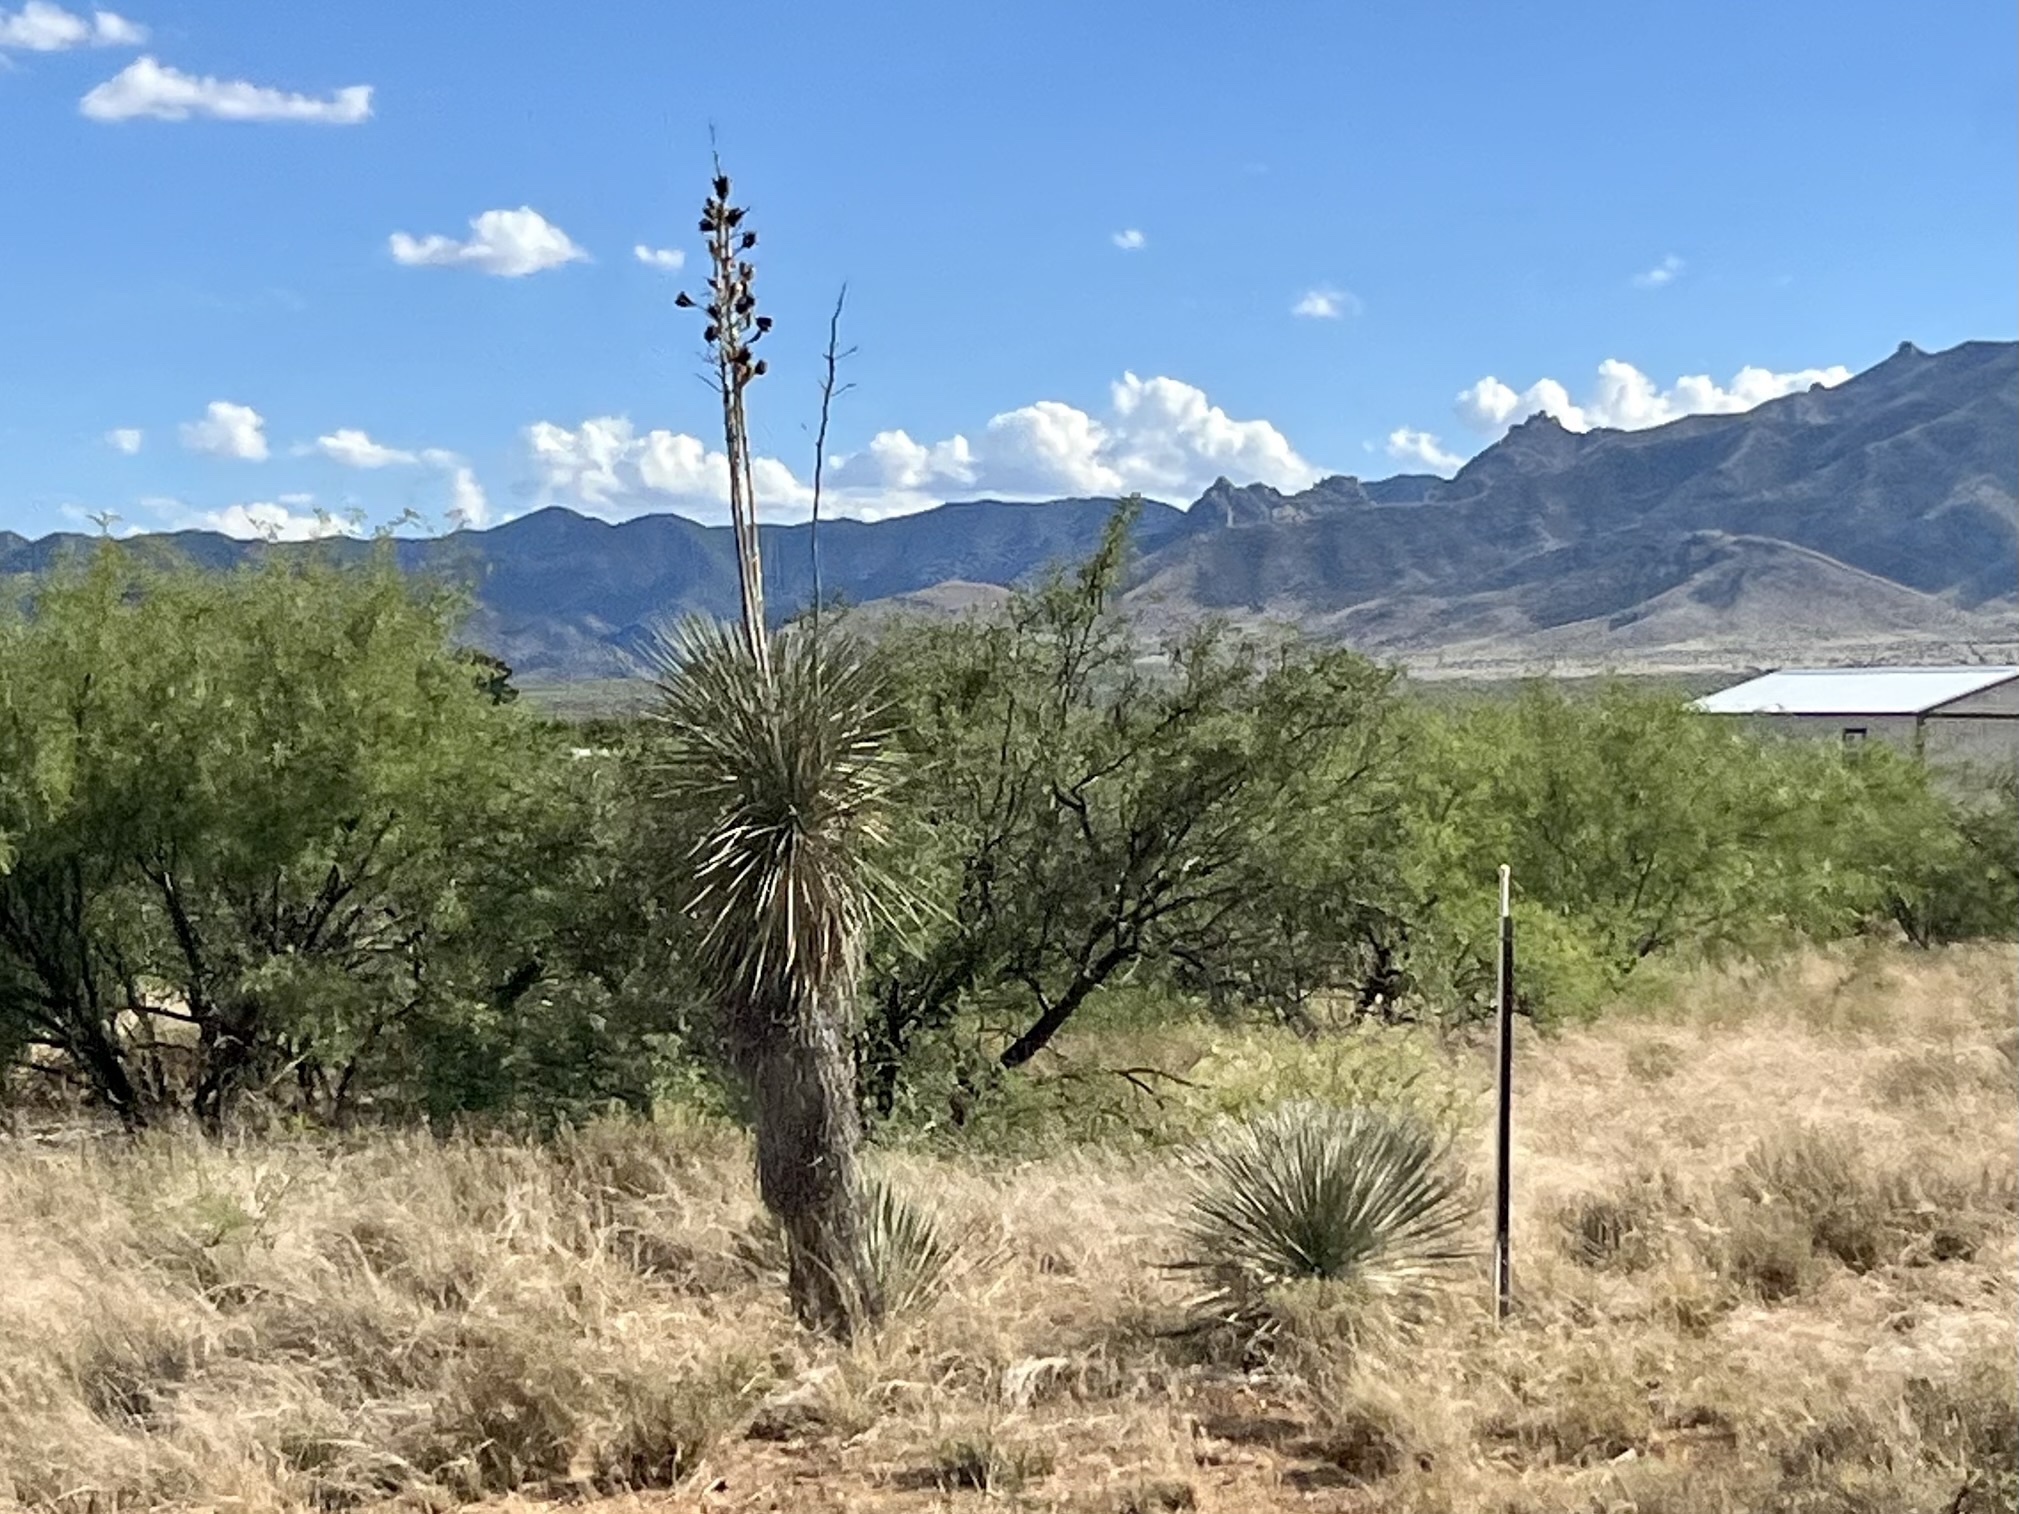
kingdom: Plantae
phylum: Tracheophyta
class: Liliopsida
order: Asparagales
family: Asparagaceae
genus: Yucca
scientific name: Yucca elata
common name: Palmella
